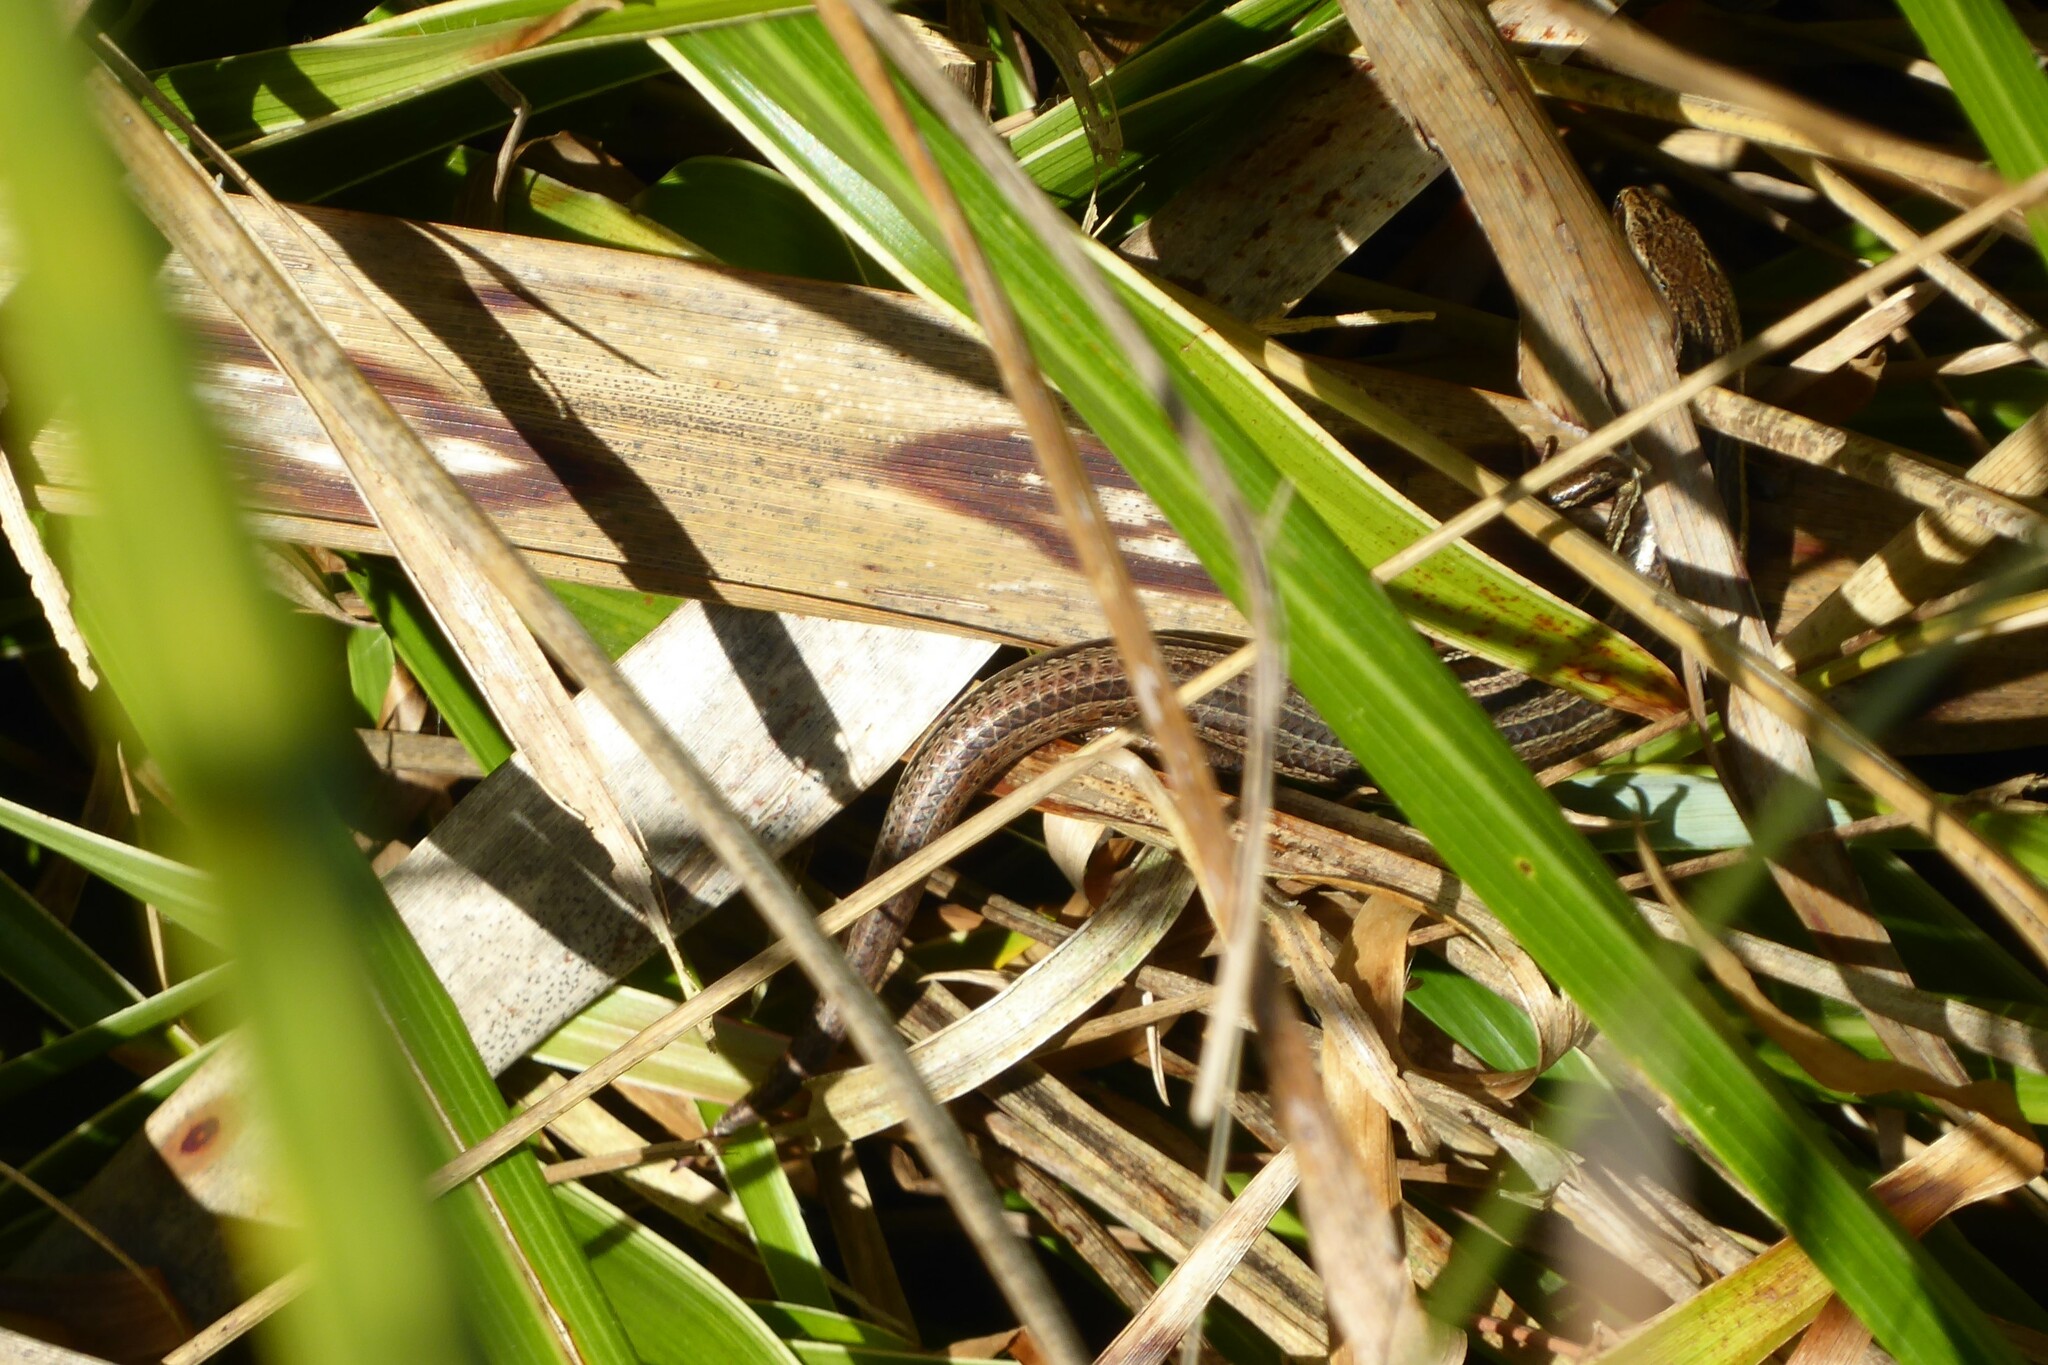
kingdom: Animalia
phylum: Chordata
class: Squamata
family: Scincidae
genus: Oligosoma
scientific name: Oligosoma polychroma
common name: Common new zealand skink
